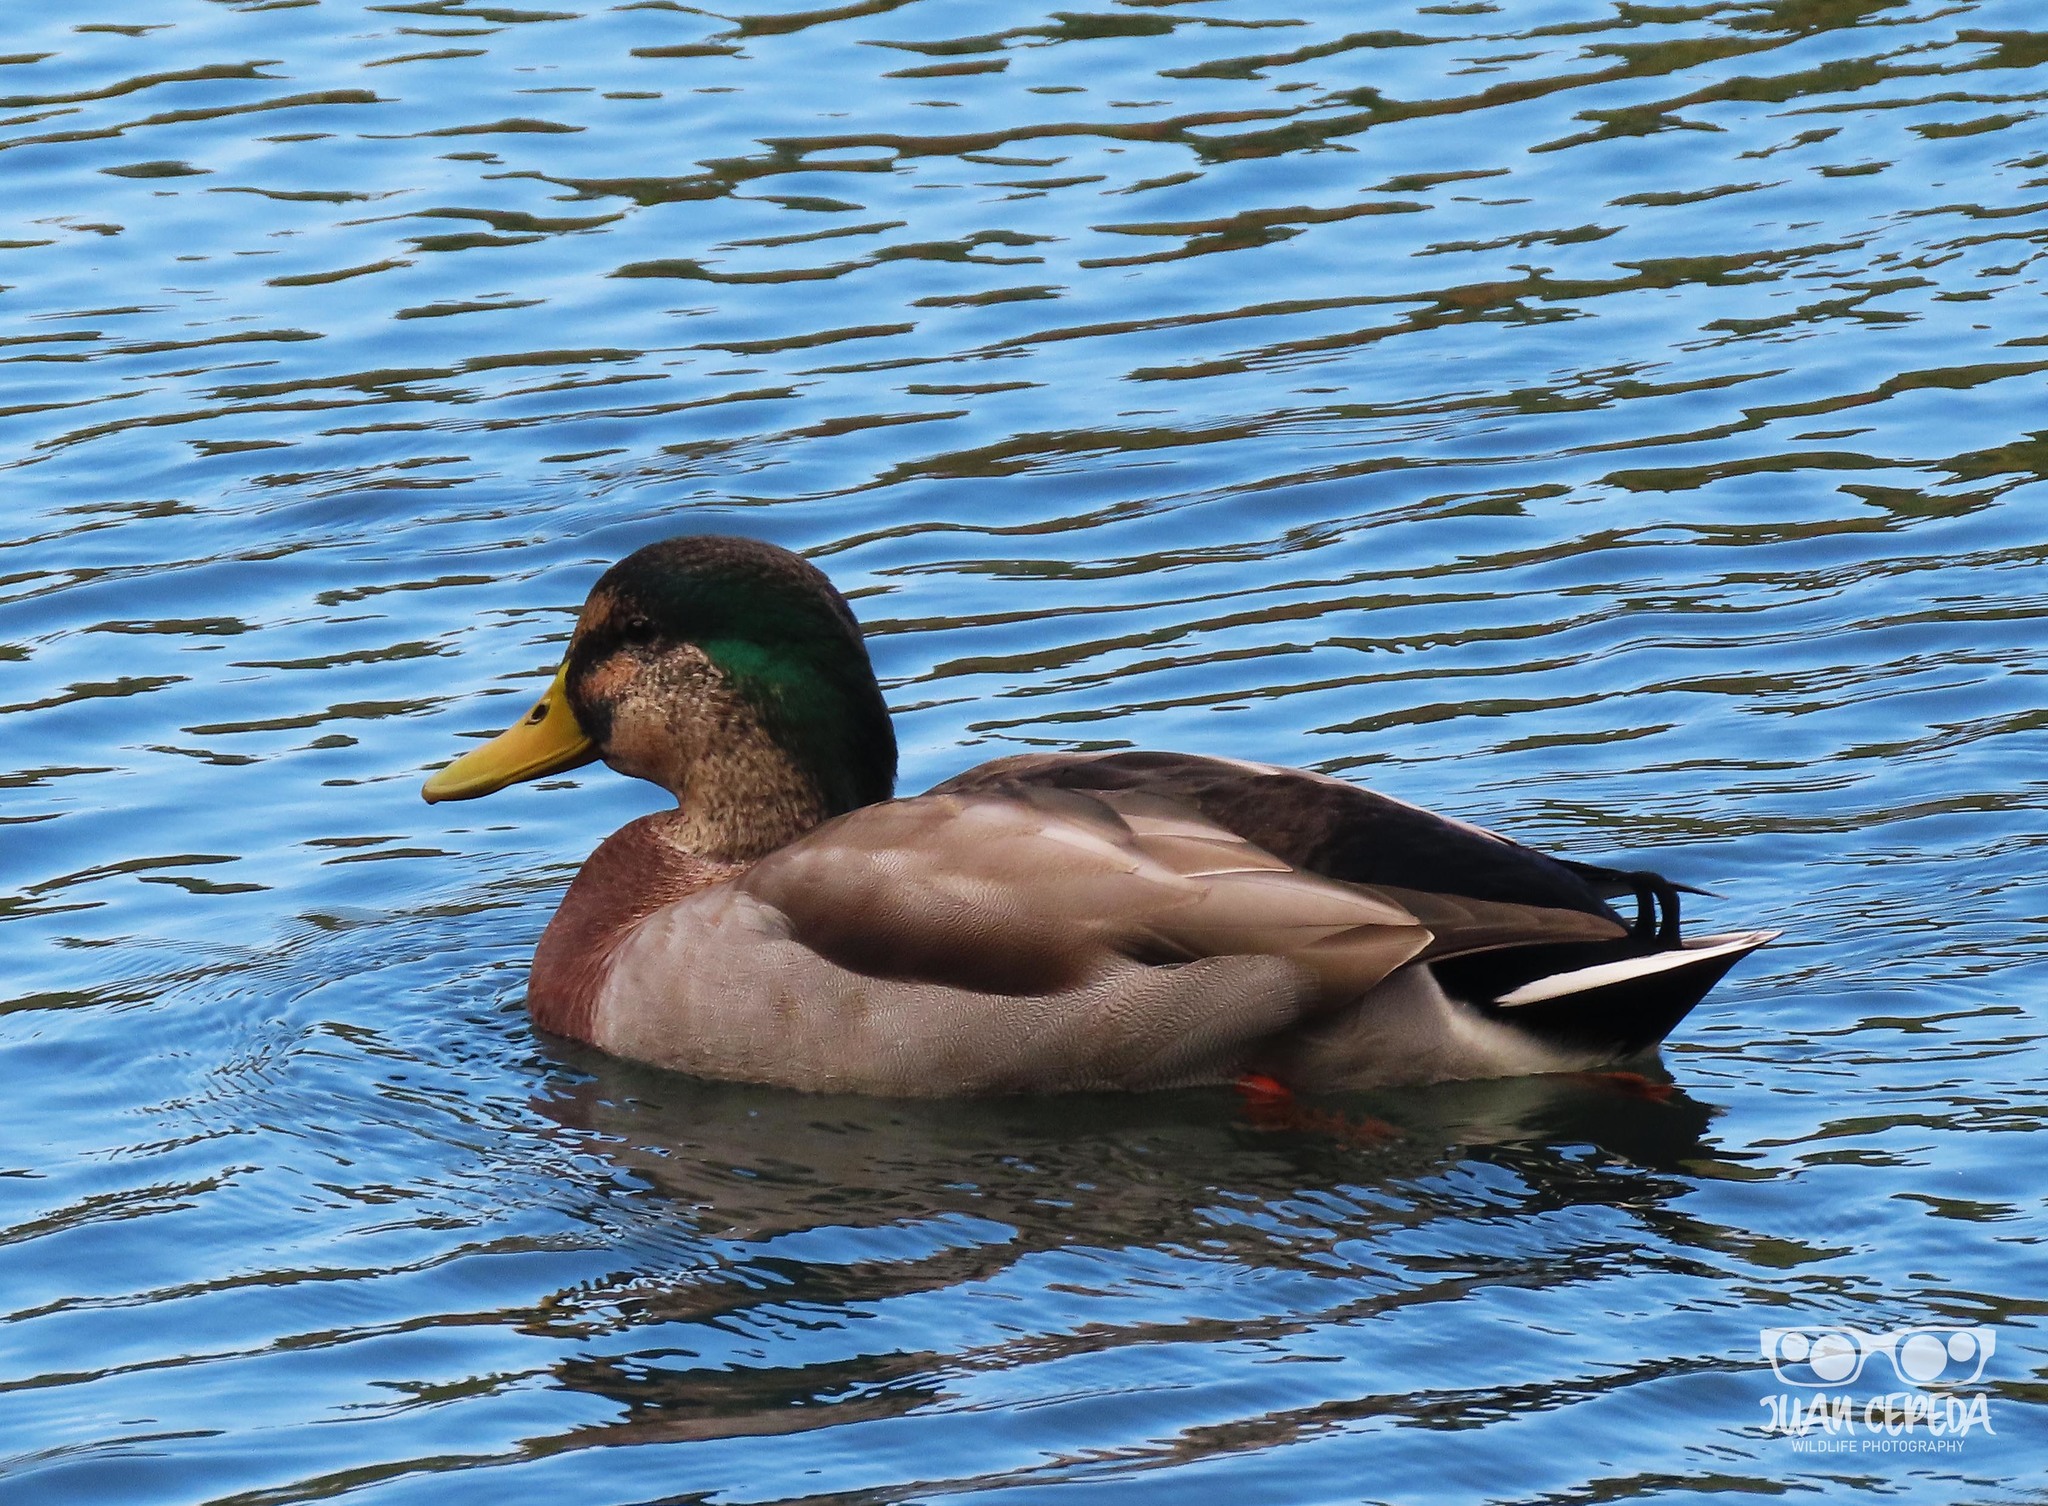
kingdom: Animalia
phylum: Chordata
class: Aves
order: Anseriformes
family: Anatidae
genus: Anas
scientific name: Anas platyrhynchos
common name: Mallard
